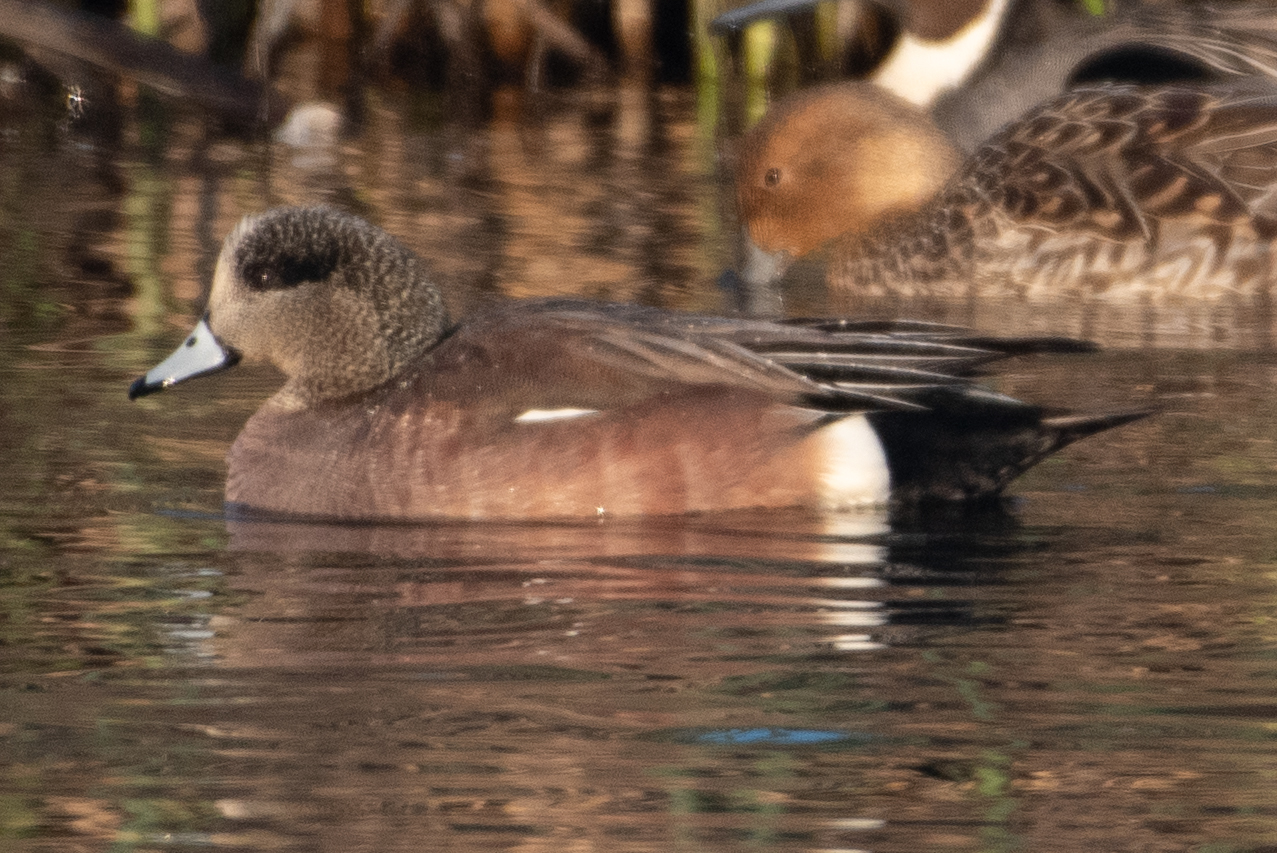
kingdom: Animalia
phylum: Chordata
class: Aves
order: Anseriformes
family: Anatidae
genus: Mareca
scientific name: Mareca americana
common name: American wigeon
